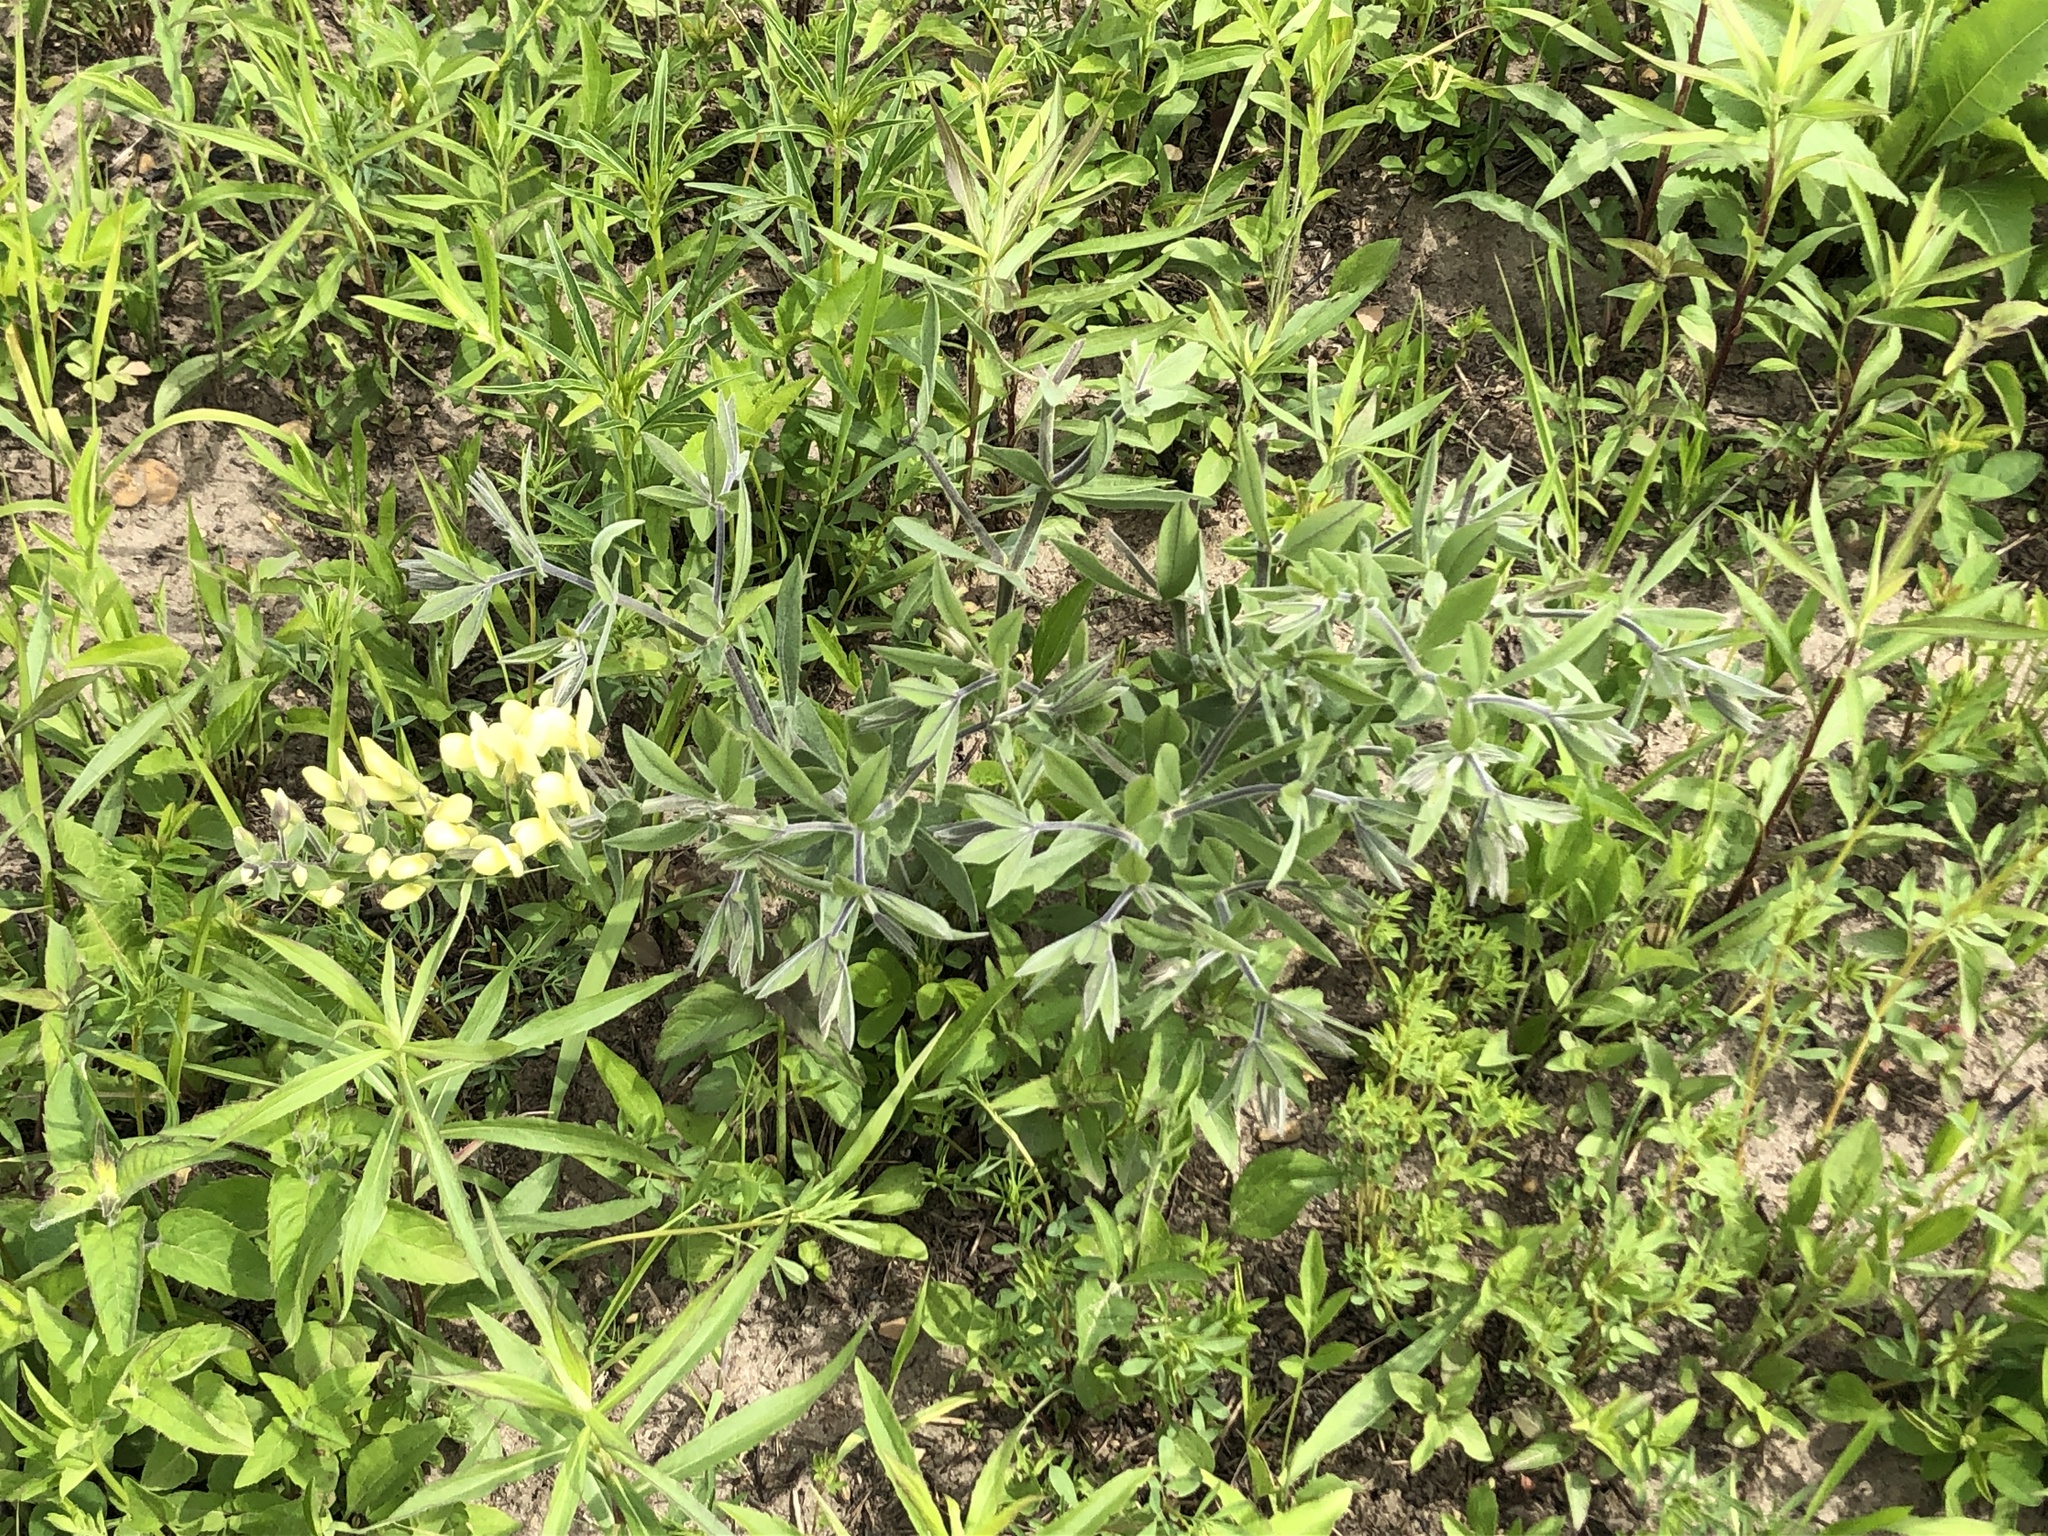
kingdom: Plantae
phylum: Tracheophyta
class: Magnoliopsida
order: Fabales
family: Fabaceae
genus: Baptisia
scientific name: Baptisia bracteata
